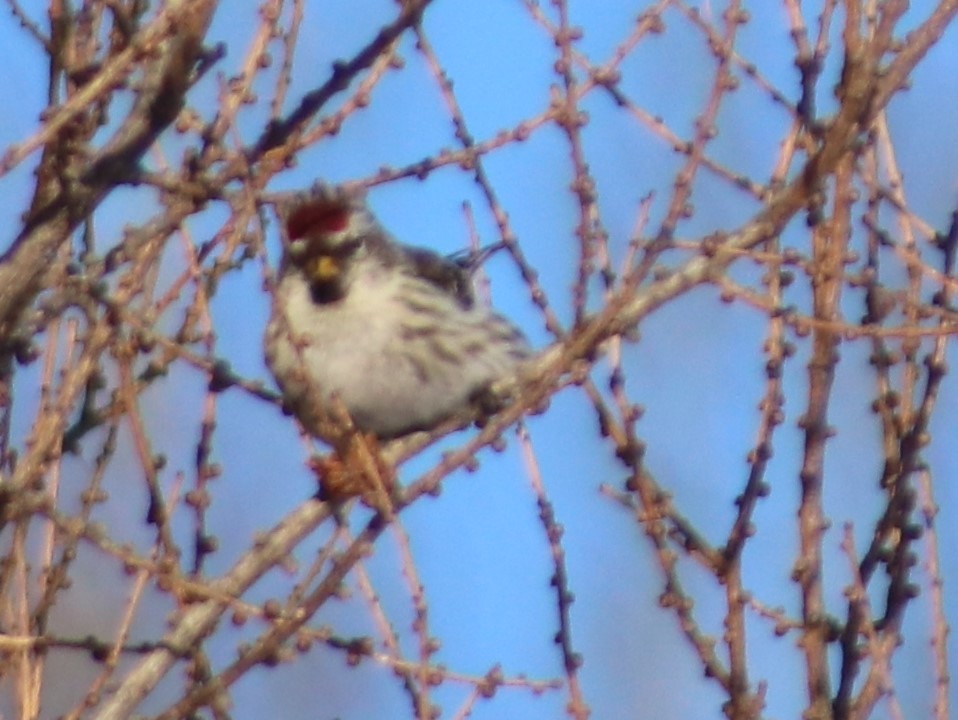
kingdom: Animalia
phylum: Chordata
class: Aves
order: Passeriformes
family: Fringillidae
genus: Acanthis
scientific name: Acanthis flammea
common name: Common redpoll
